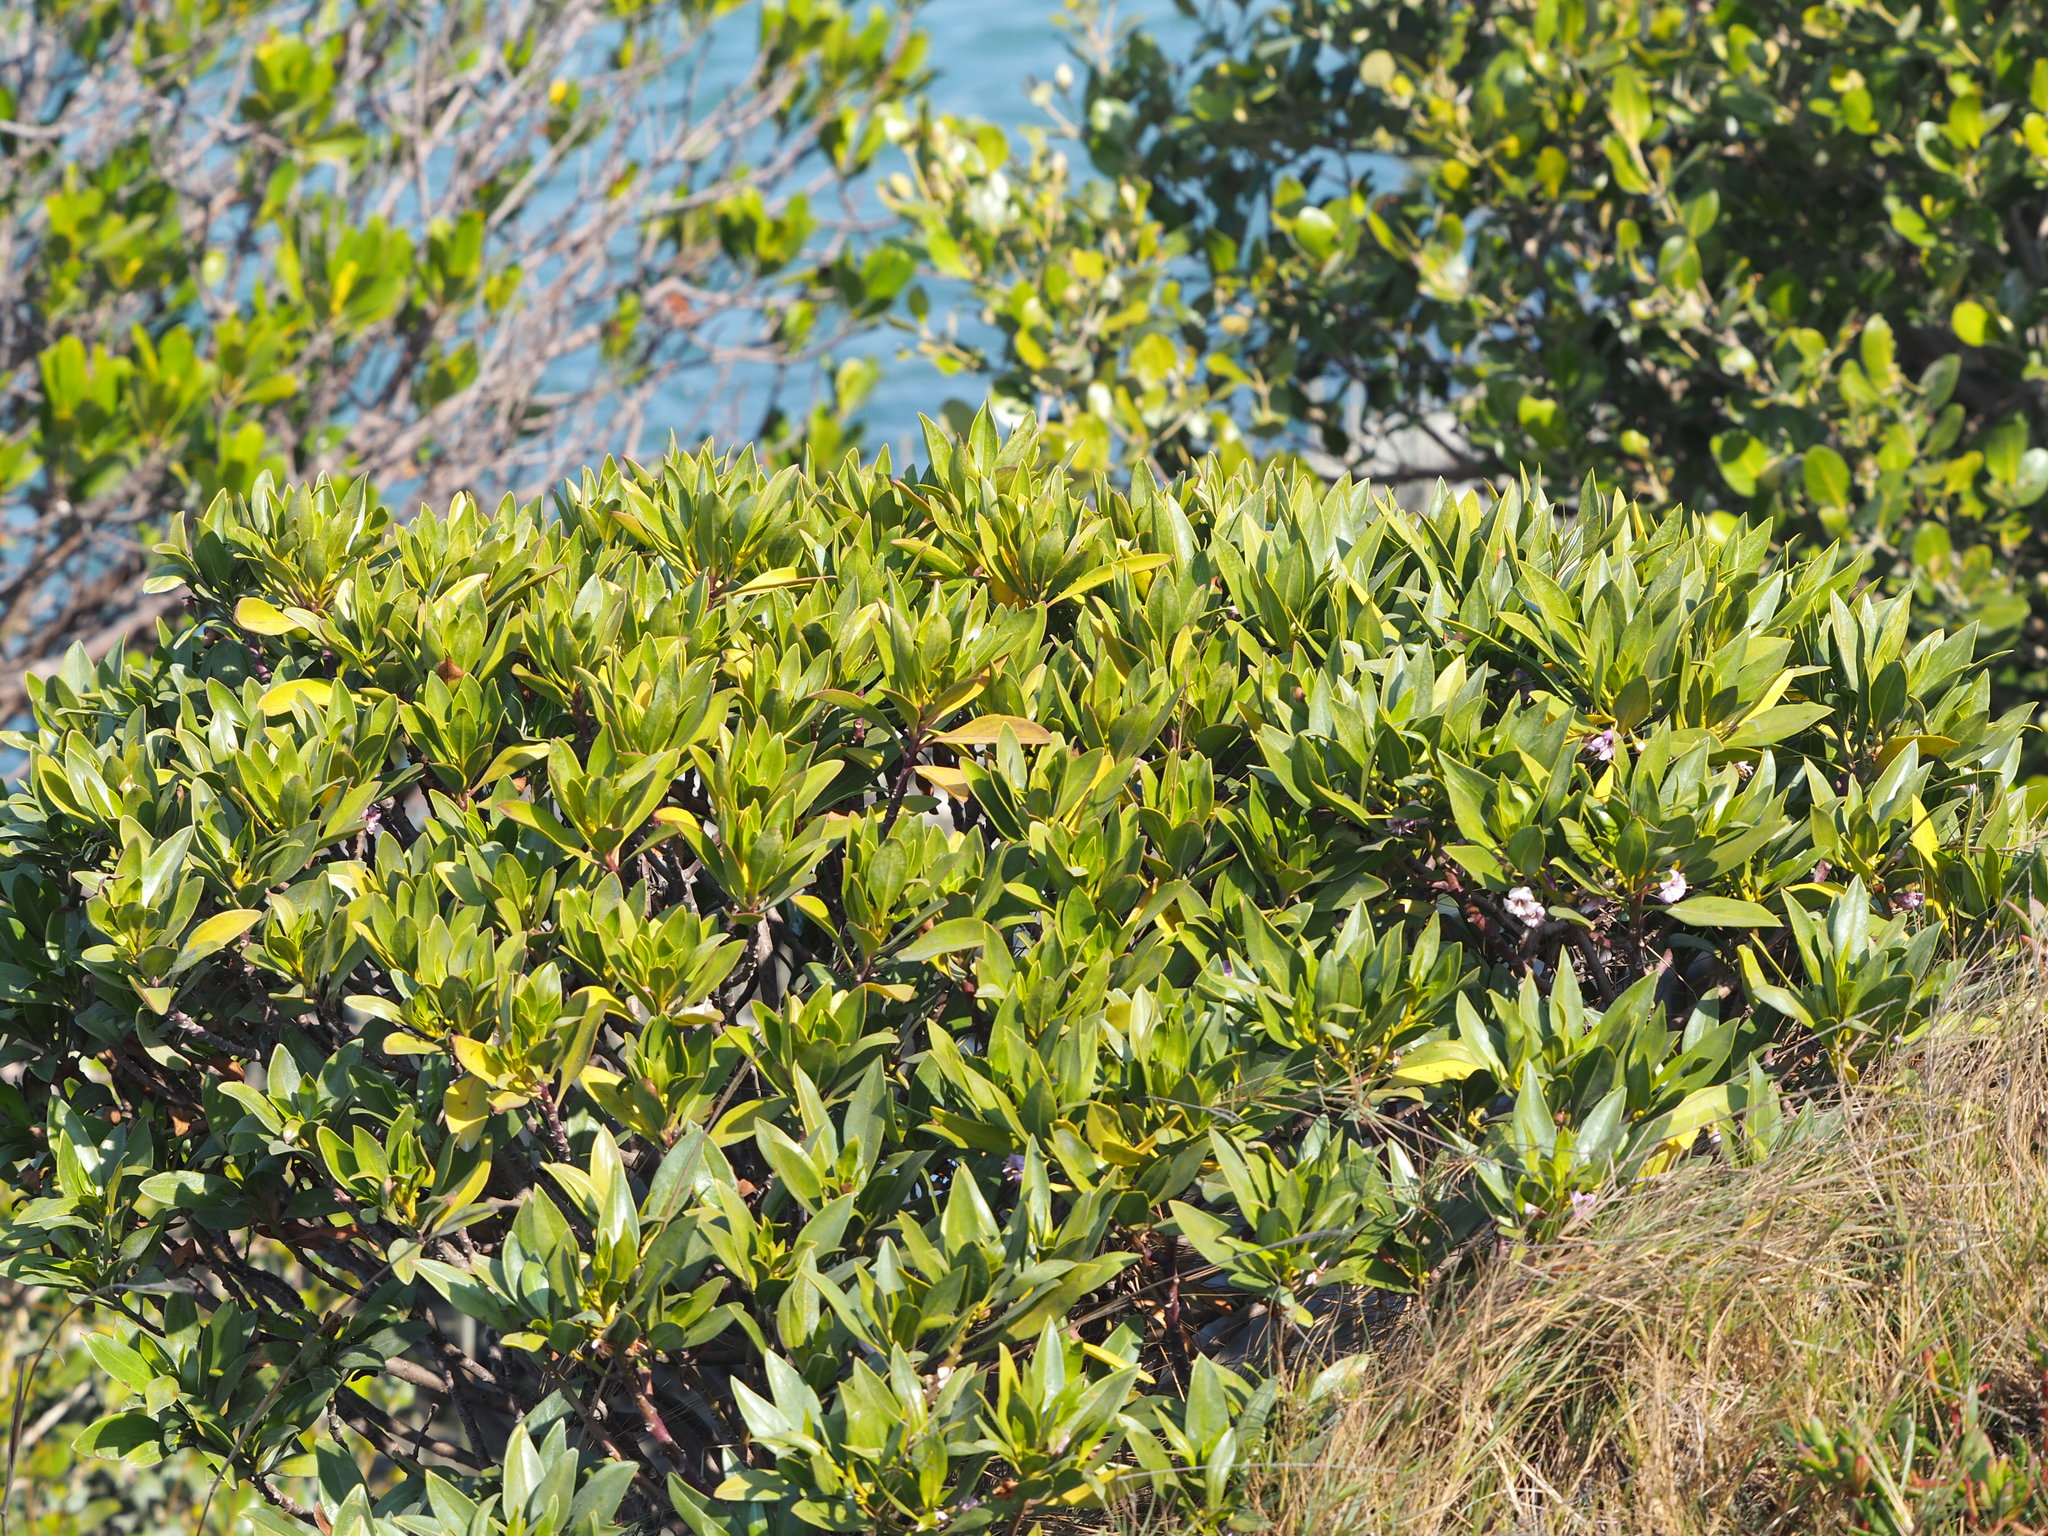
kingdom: Plantae
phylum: Tracheophyta
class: Magnoliopsida
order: Lamiales
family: Scrophulariaceae
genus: Myoporum
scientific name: Myoporum bontioides
